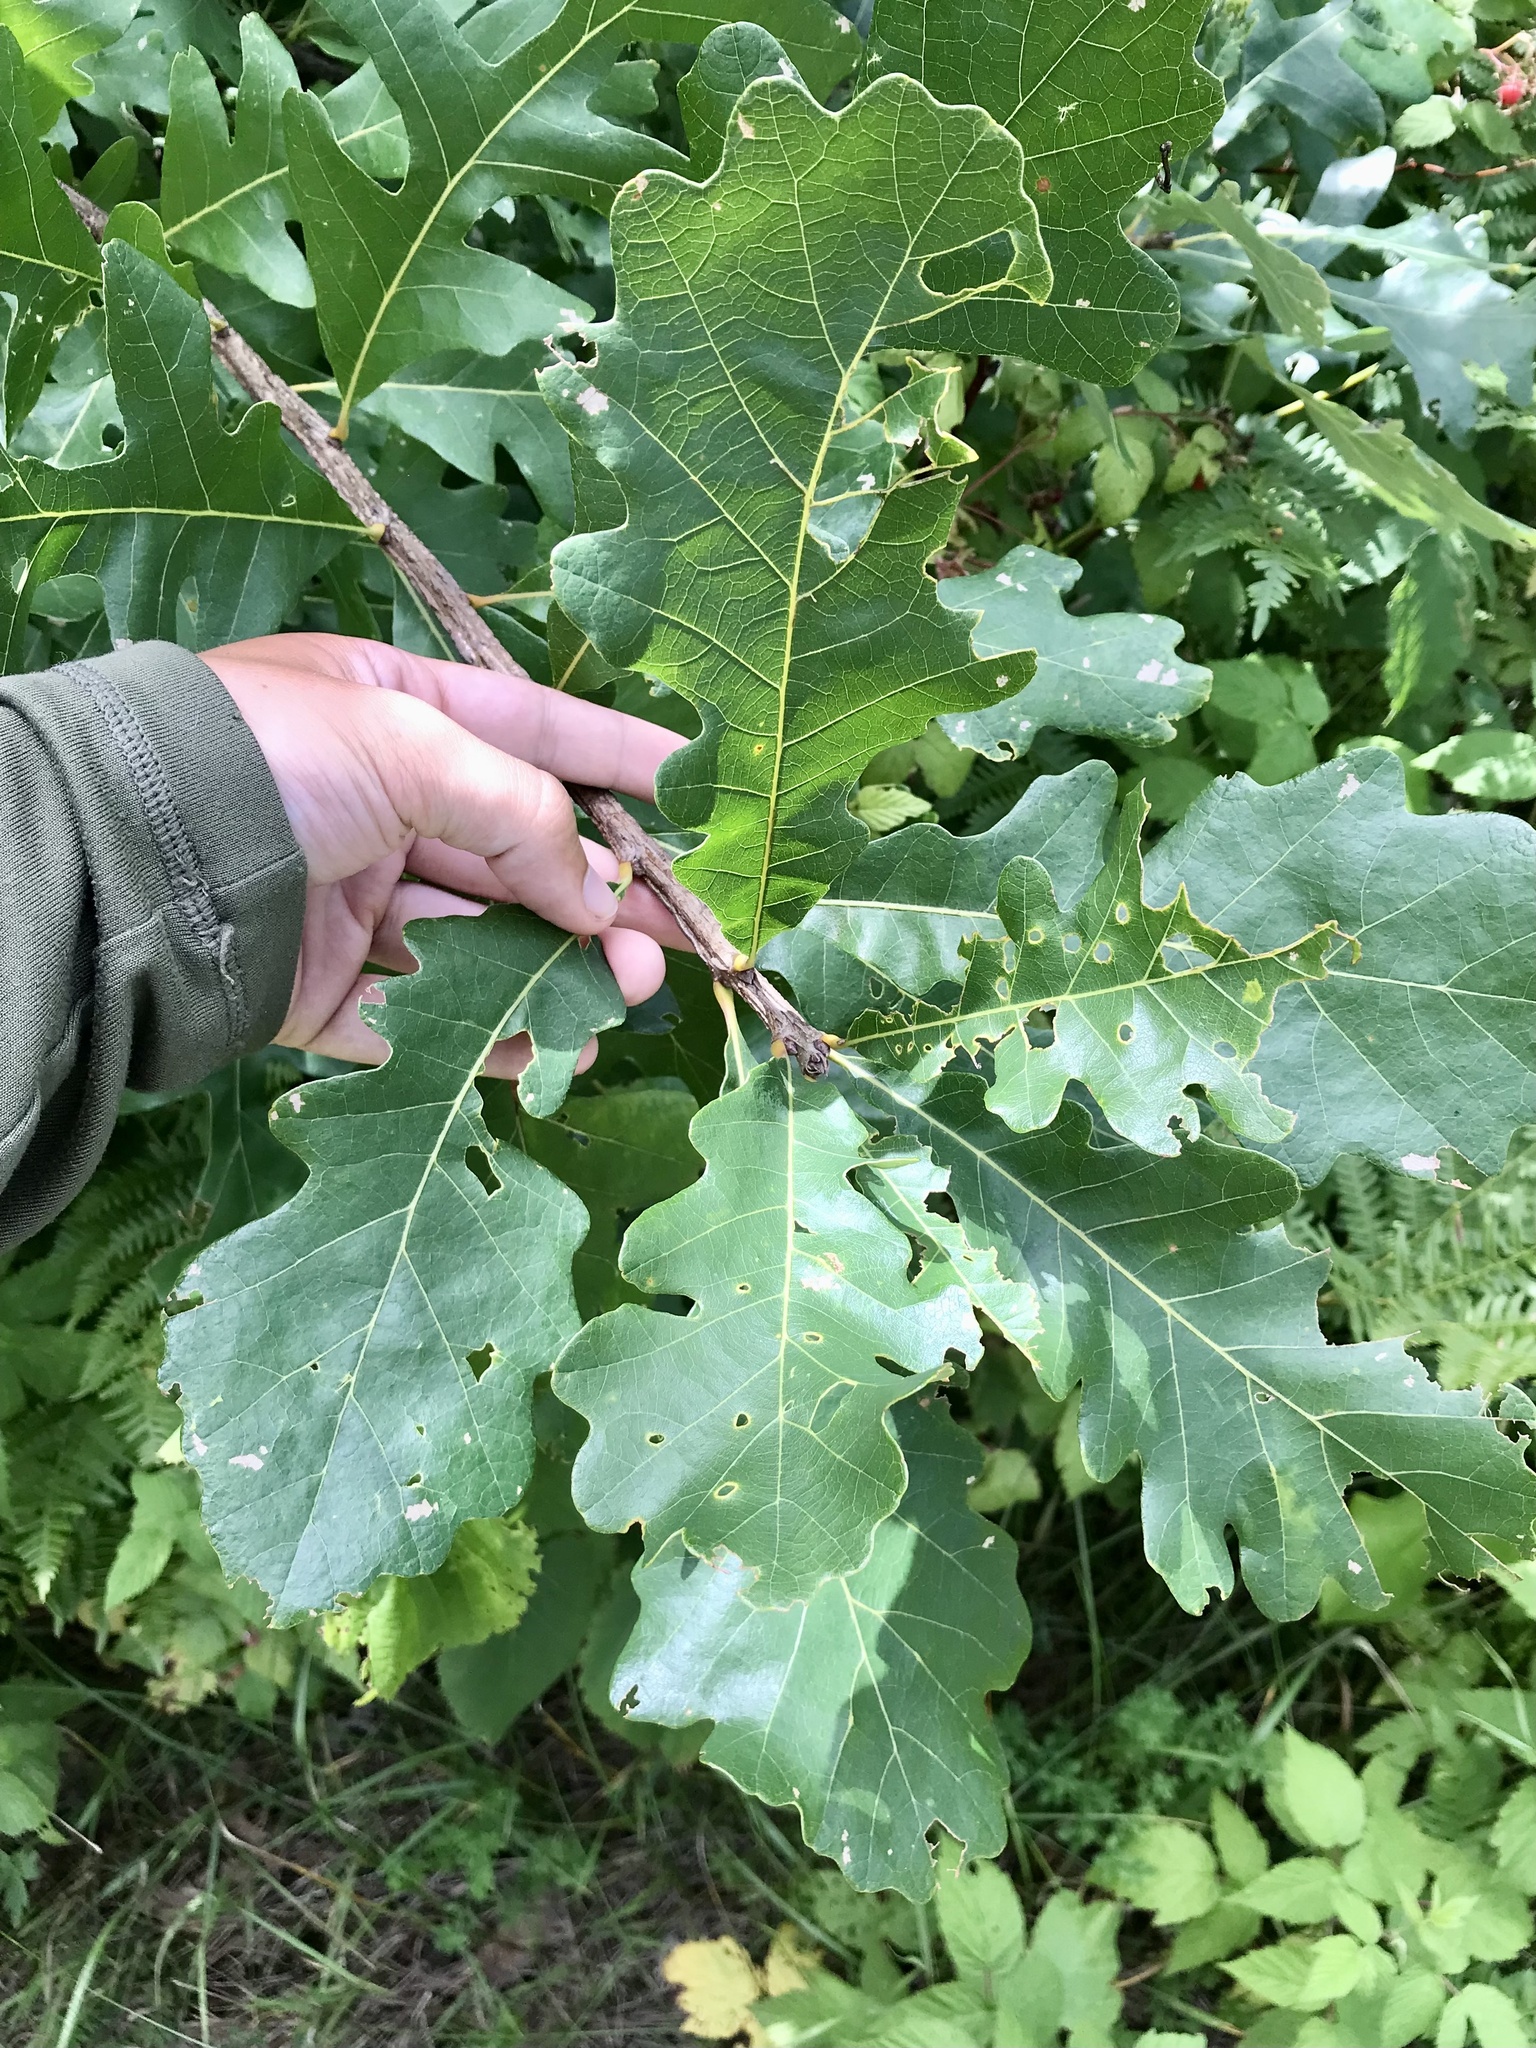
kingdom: Plantae
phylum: Tracheophyta
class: Magnoliopsida
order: Fagales
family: Fagaceae
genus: Quercus
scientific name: Quercus macrocarpa
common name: Bur oak
